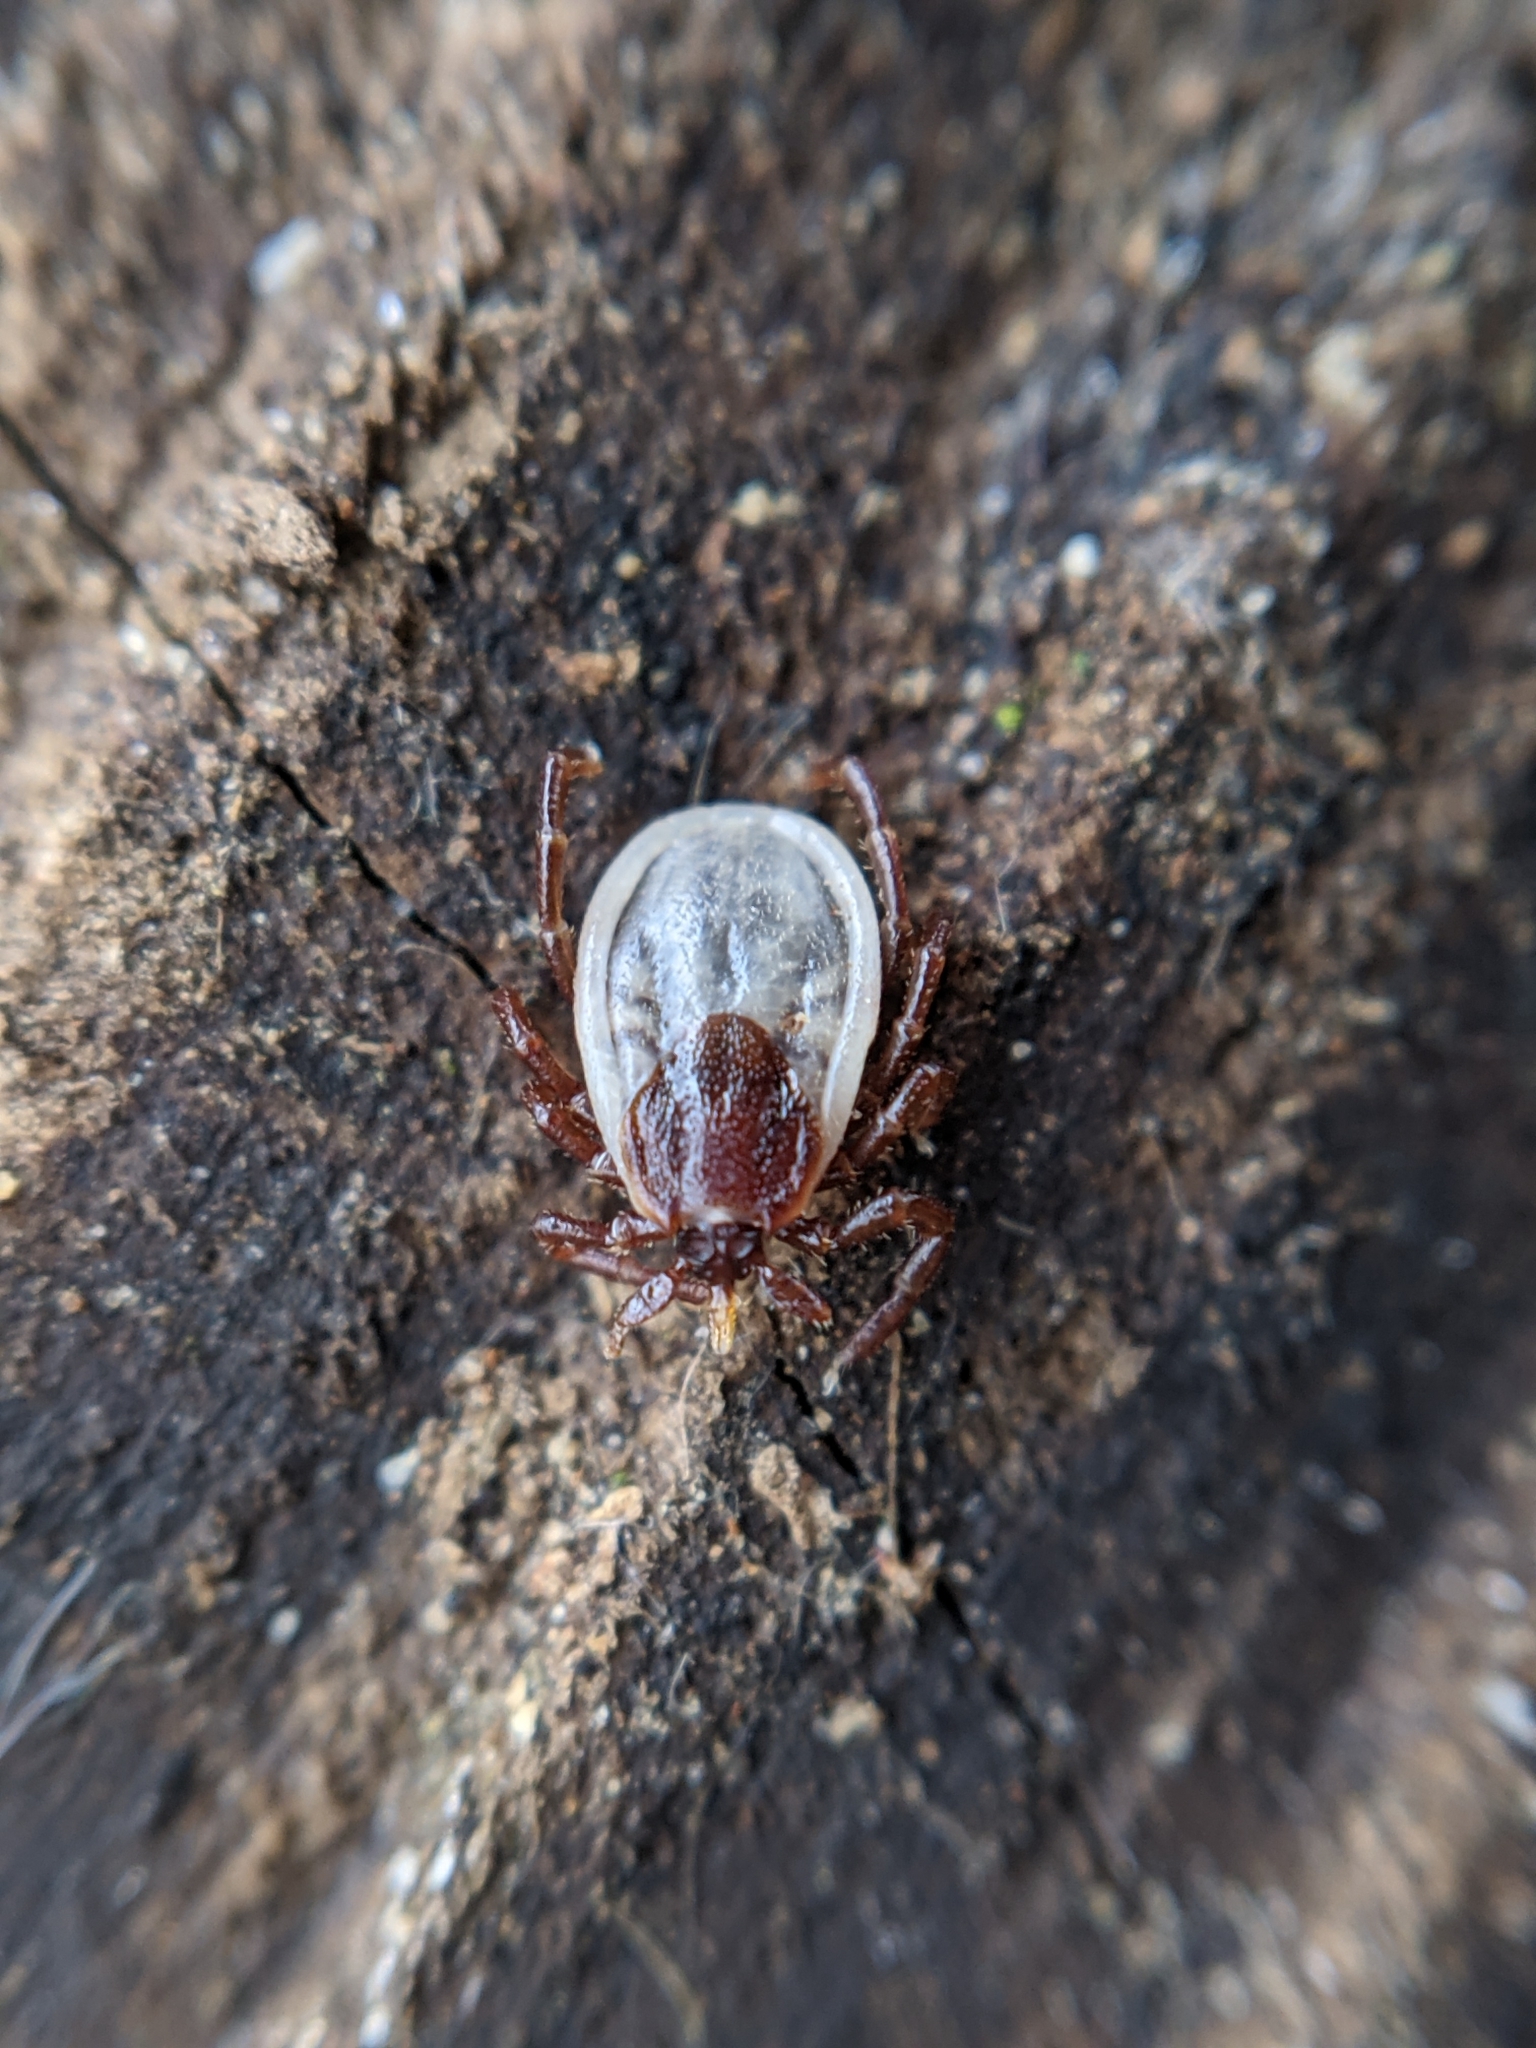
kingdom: Animalia
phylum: Arthropoda
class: Arachnida
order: Ixodida
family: Ixodidae
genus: Ixodes
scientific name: Ixodes hexagonus
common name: Hedgehog tick
